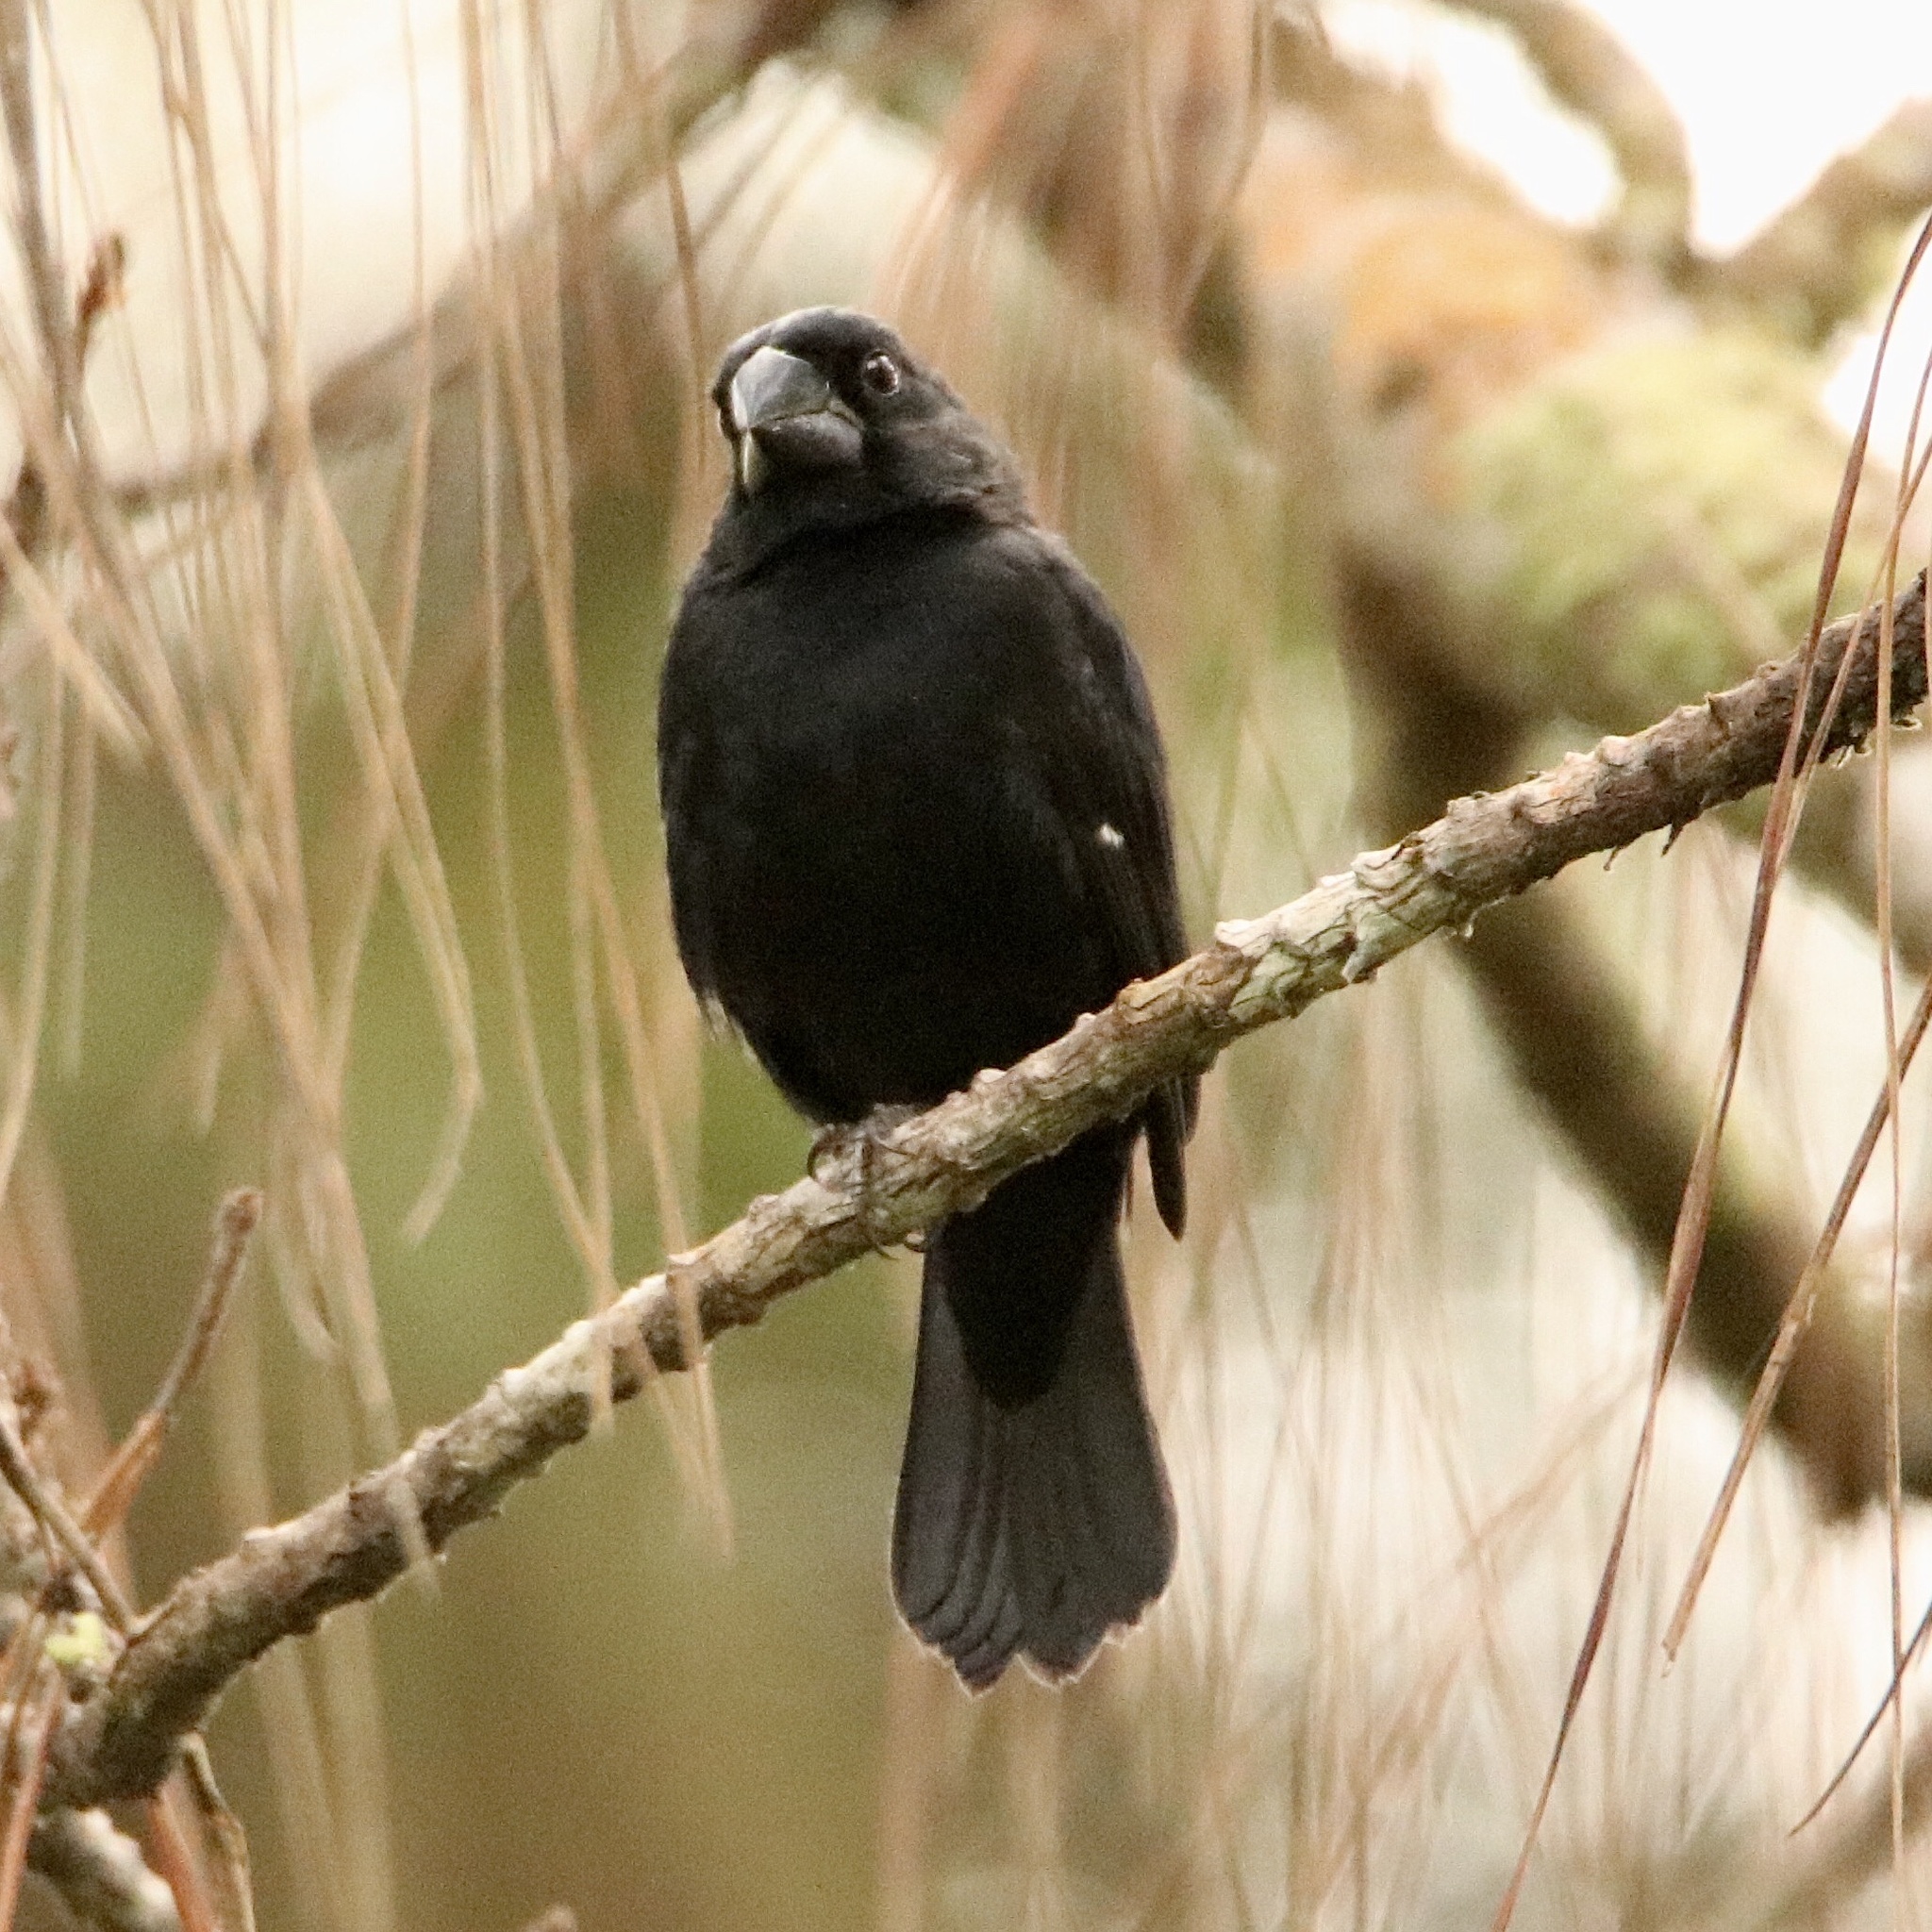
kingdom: Animalia
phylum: Chordata
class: Aves
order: Passeriformes
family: Thraupidae
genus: Sporophila
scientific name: Sporophila funerea
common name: Thick-billed seed-finch
